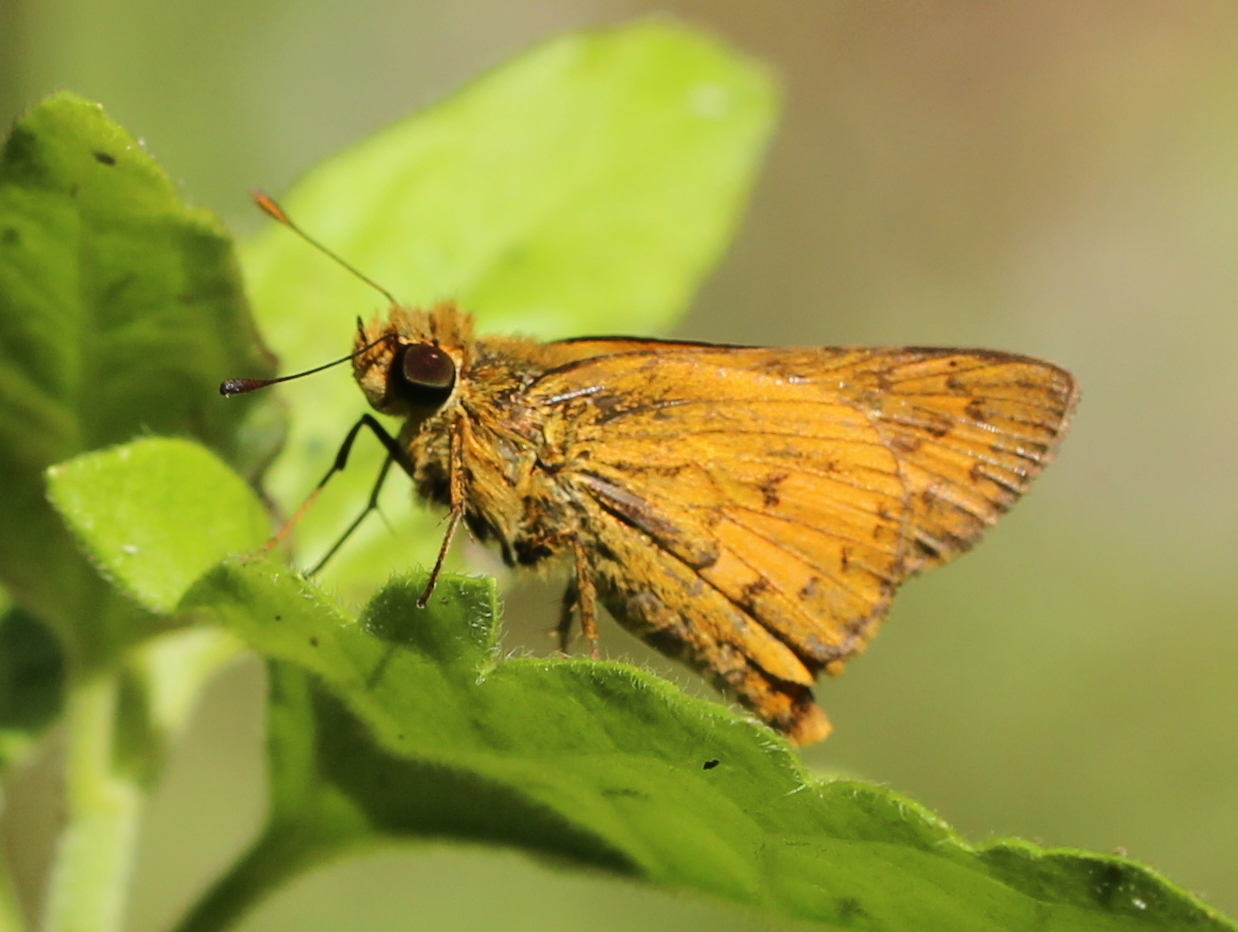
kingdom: Animalia
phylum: Arthropoda
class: Insecta
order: Lepidoptera
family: Hesperiidae
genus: Telicota
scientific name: Telicota bambusae
